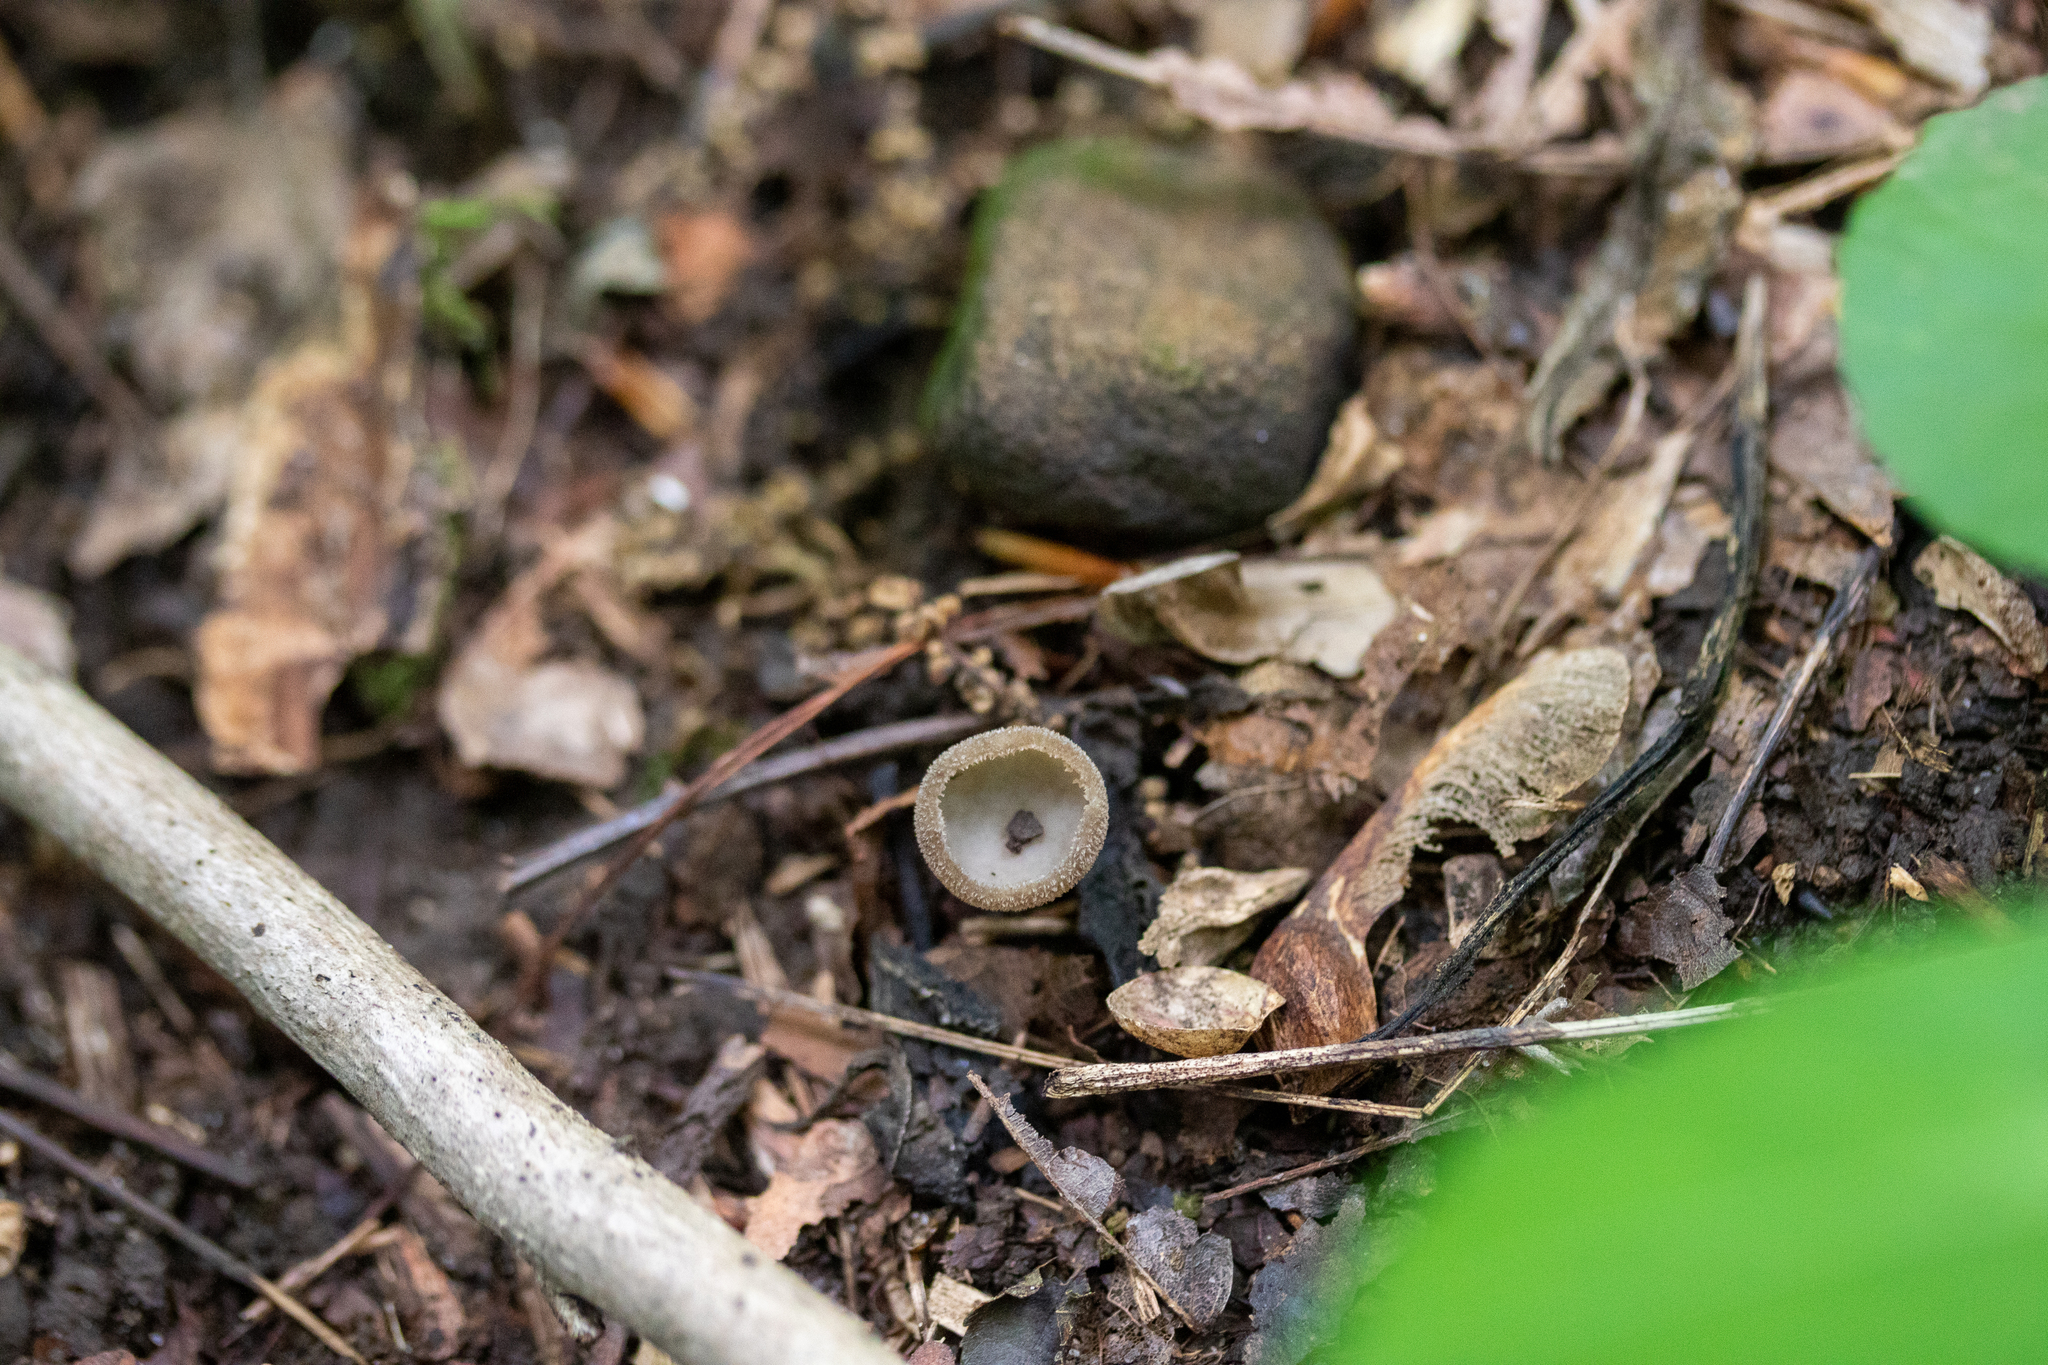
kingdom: Fungi
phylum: Ascomycota
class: Pezizomycetes
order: Pezizales
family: Helvellaceae
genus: Helvella
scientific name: Helvella macropus
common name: Felt saddle
